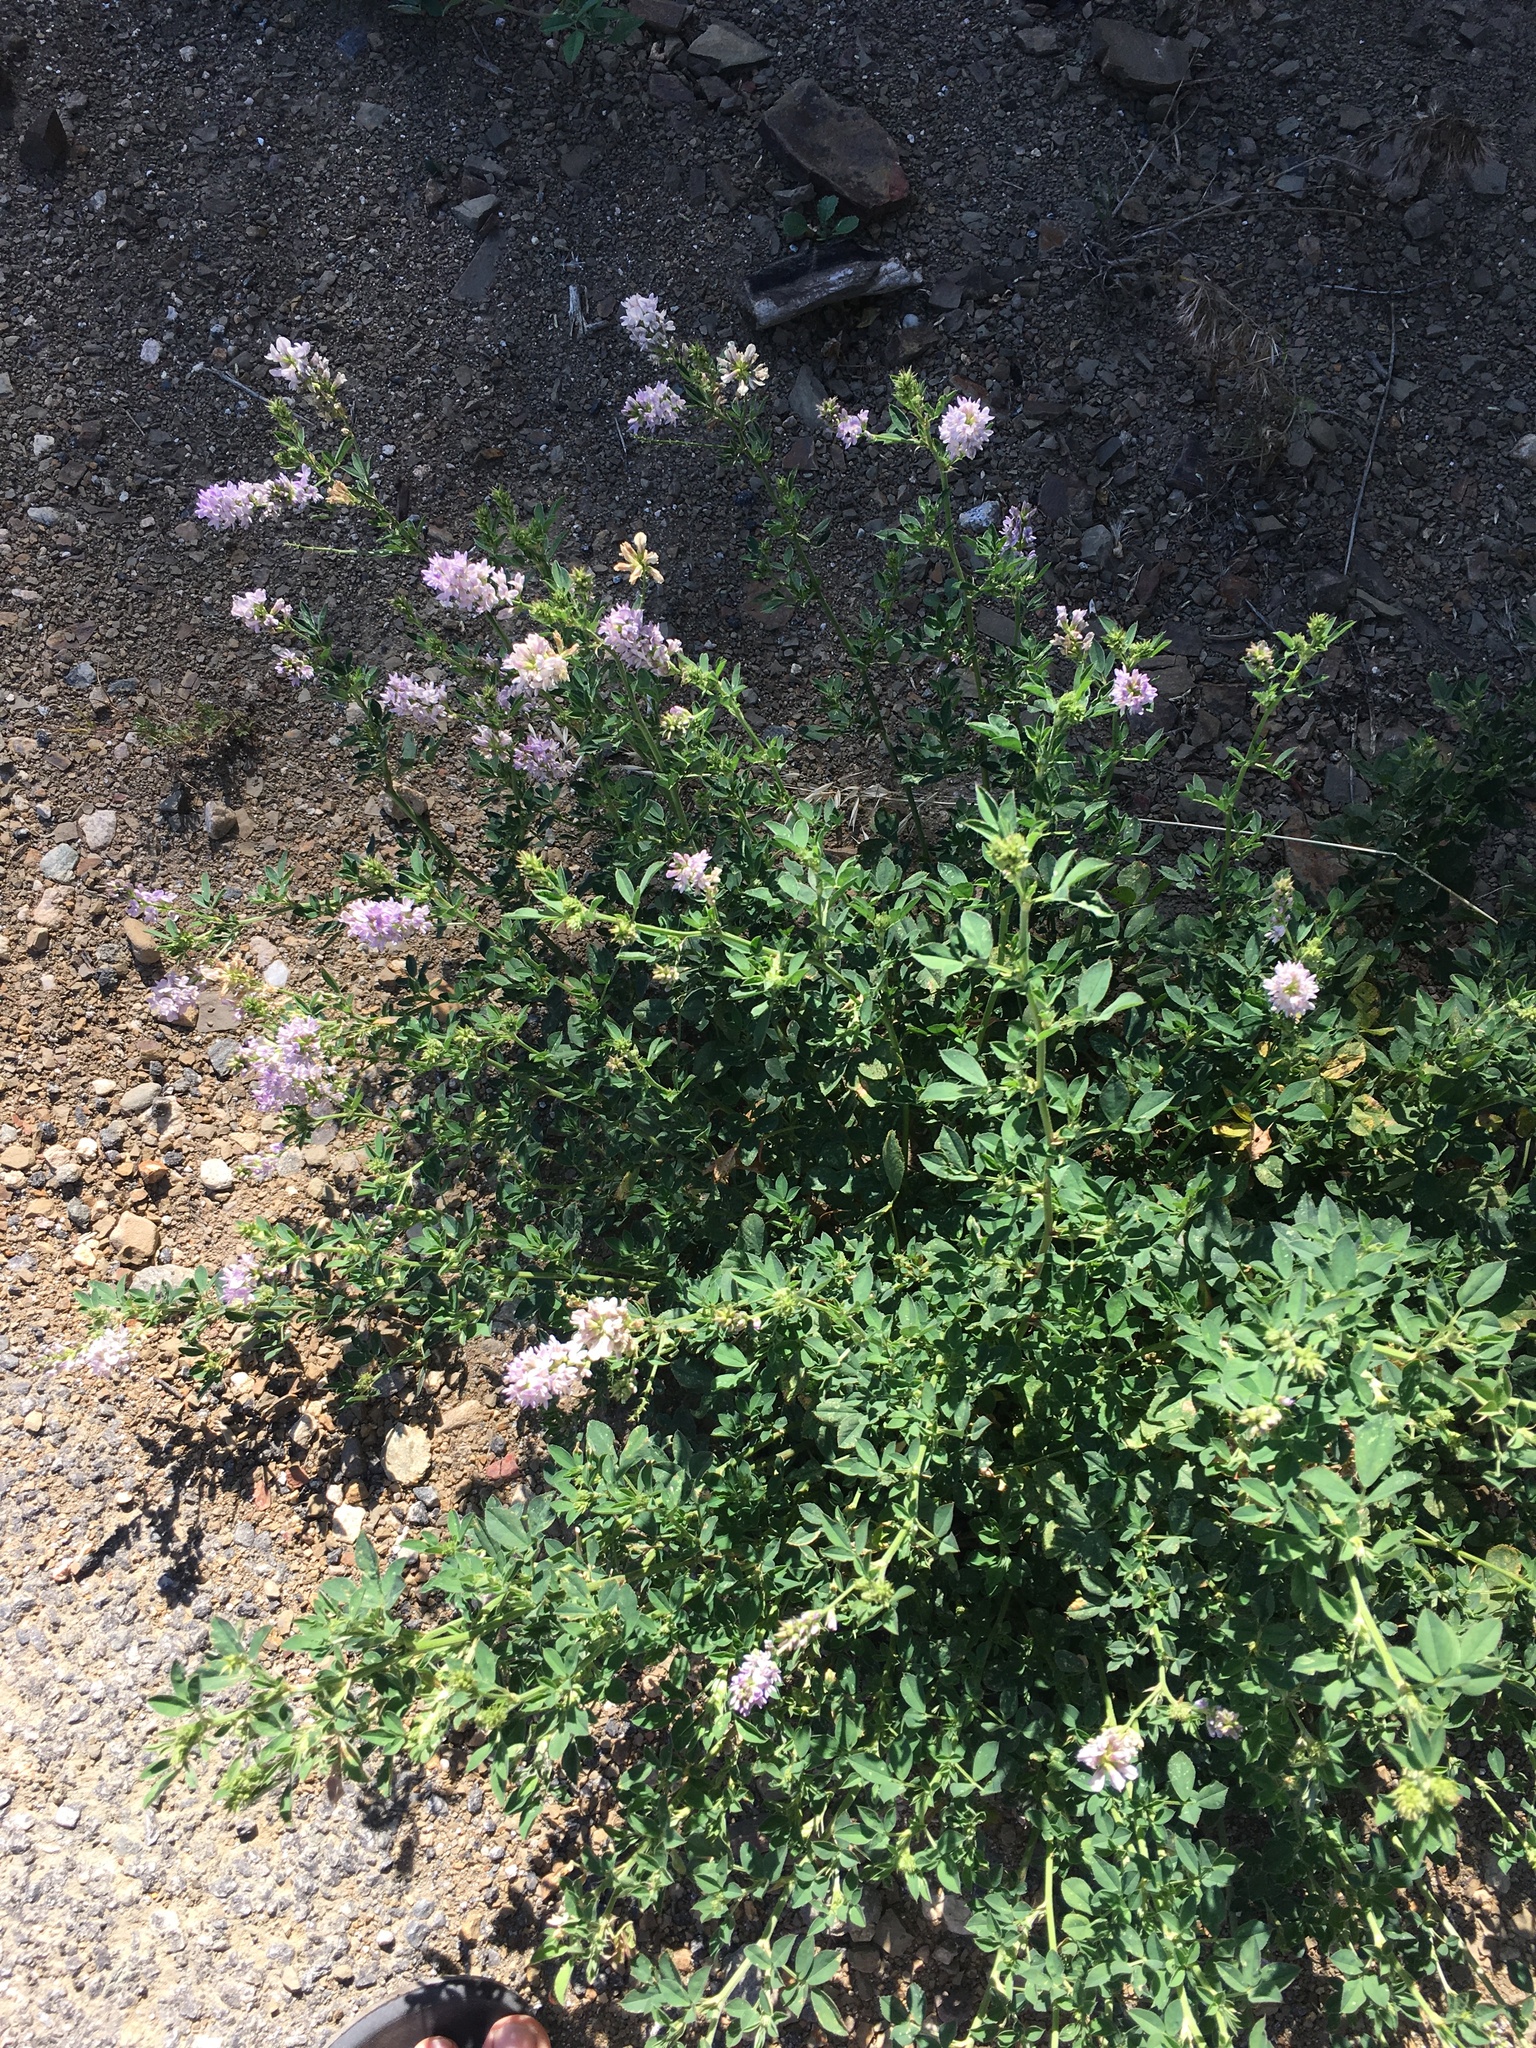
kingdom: Plantae
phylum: Tracheophyta
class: Magnoliopsida
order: Fabales
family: Fabaceae
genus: Medicago
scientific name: Medicago sativa
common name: Alfalfa
